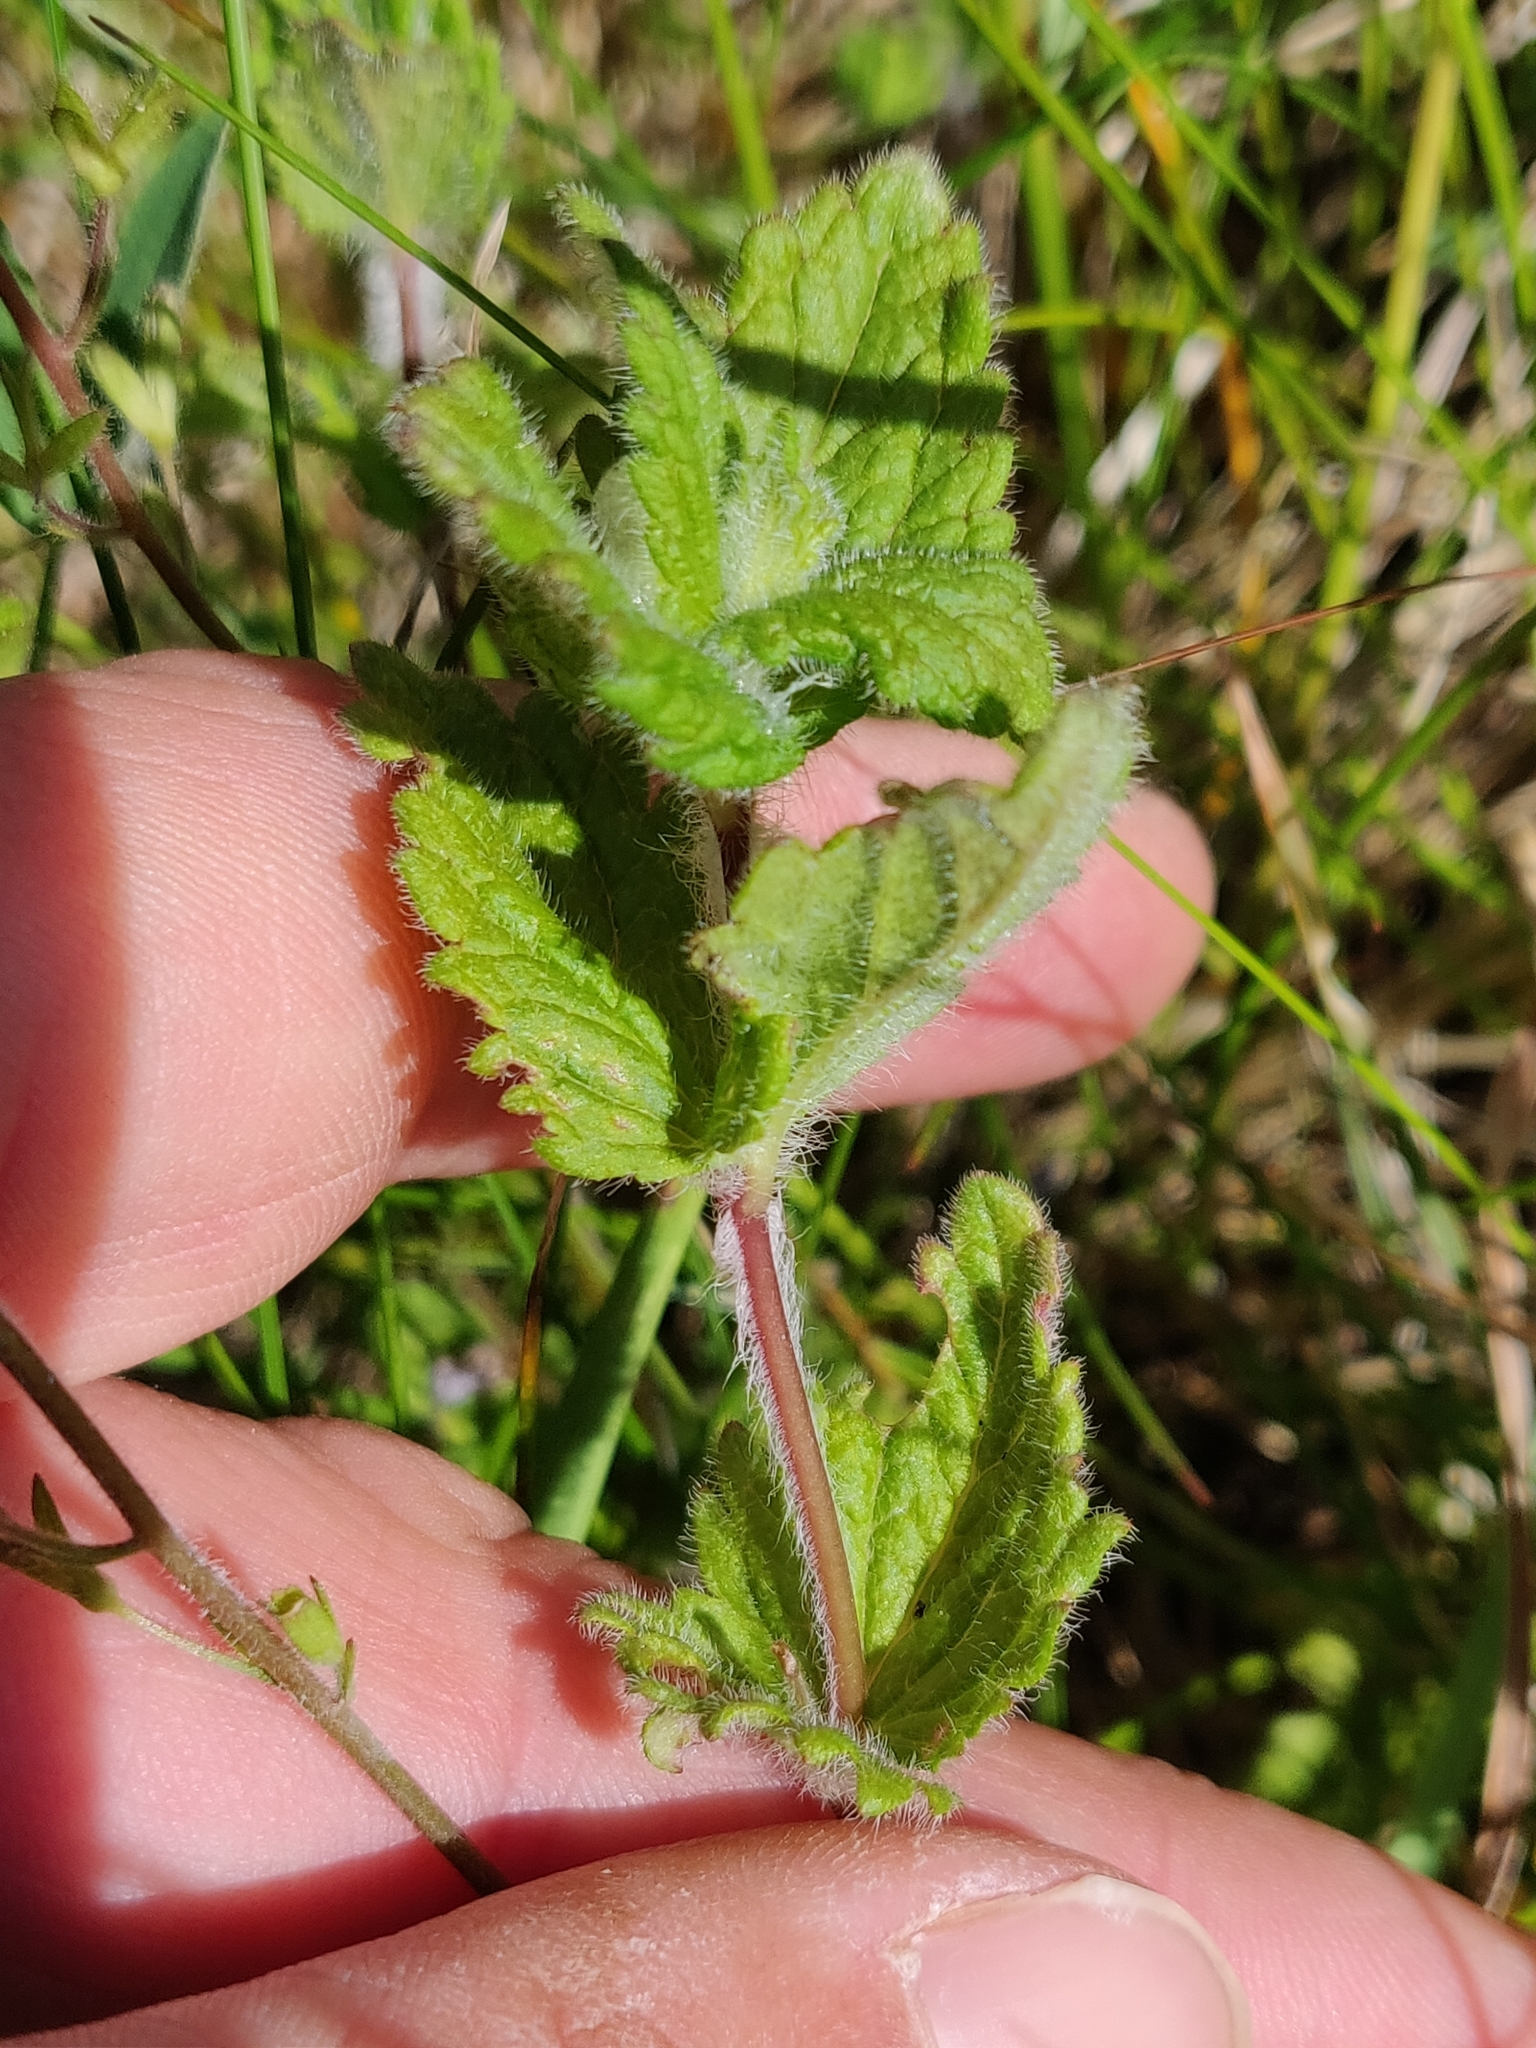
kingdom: Plantae
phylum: Tracheophyta
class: Magnoliopsida
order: Lamiales
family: Plantaginaceae
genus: Veronica
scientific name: Veronica chamaedrys
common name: Germander speedwell
